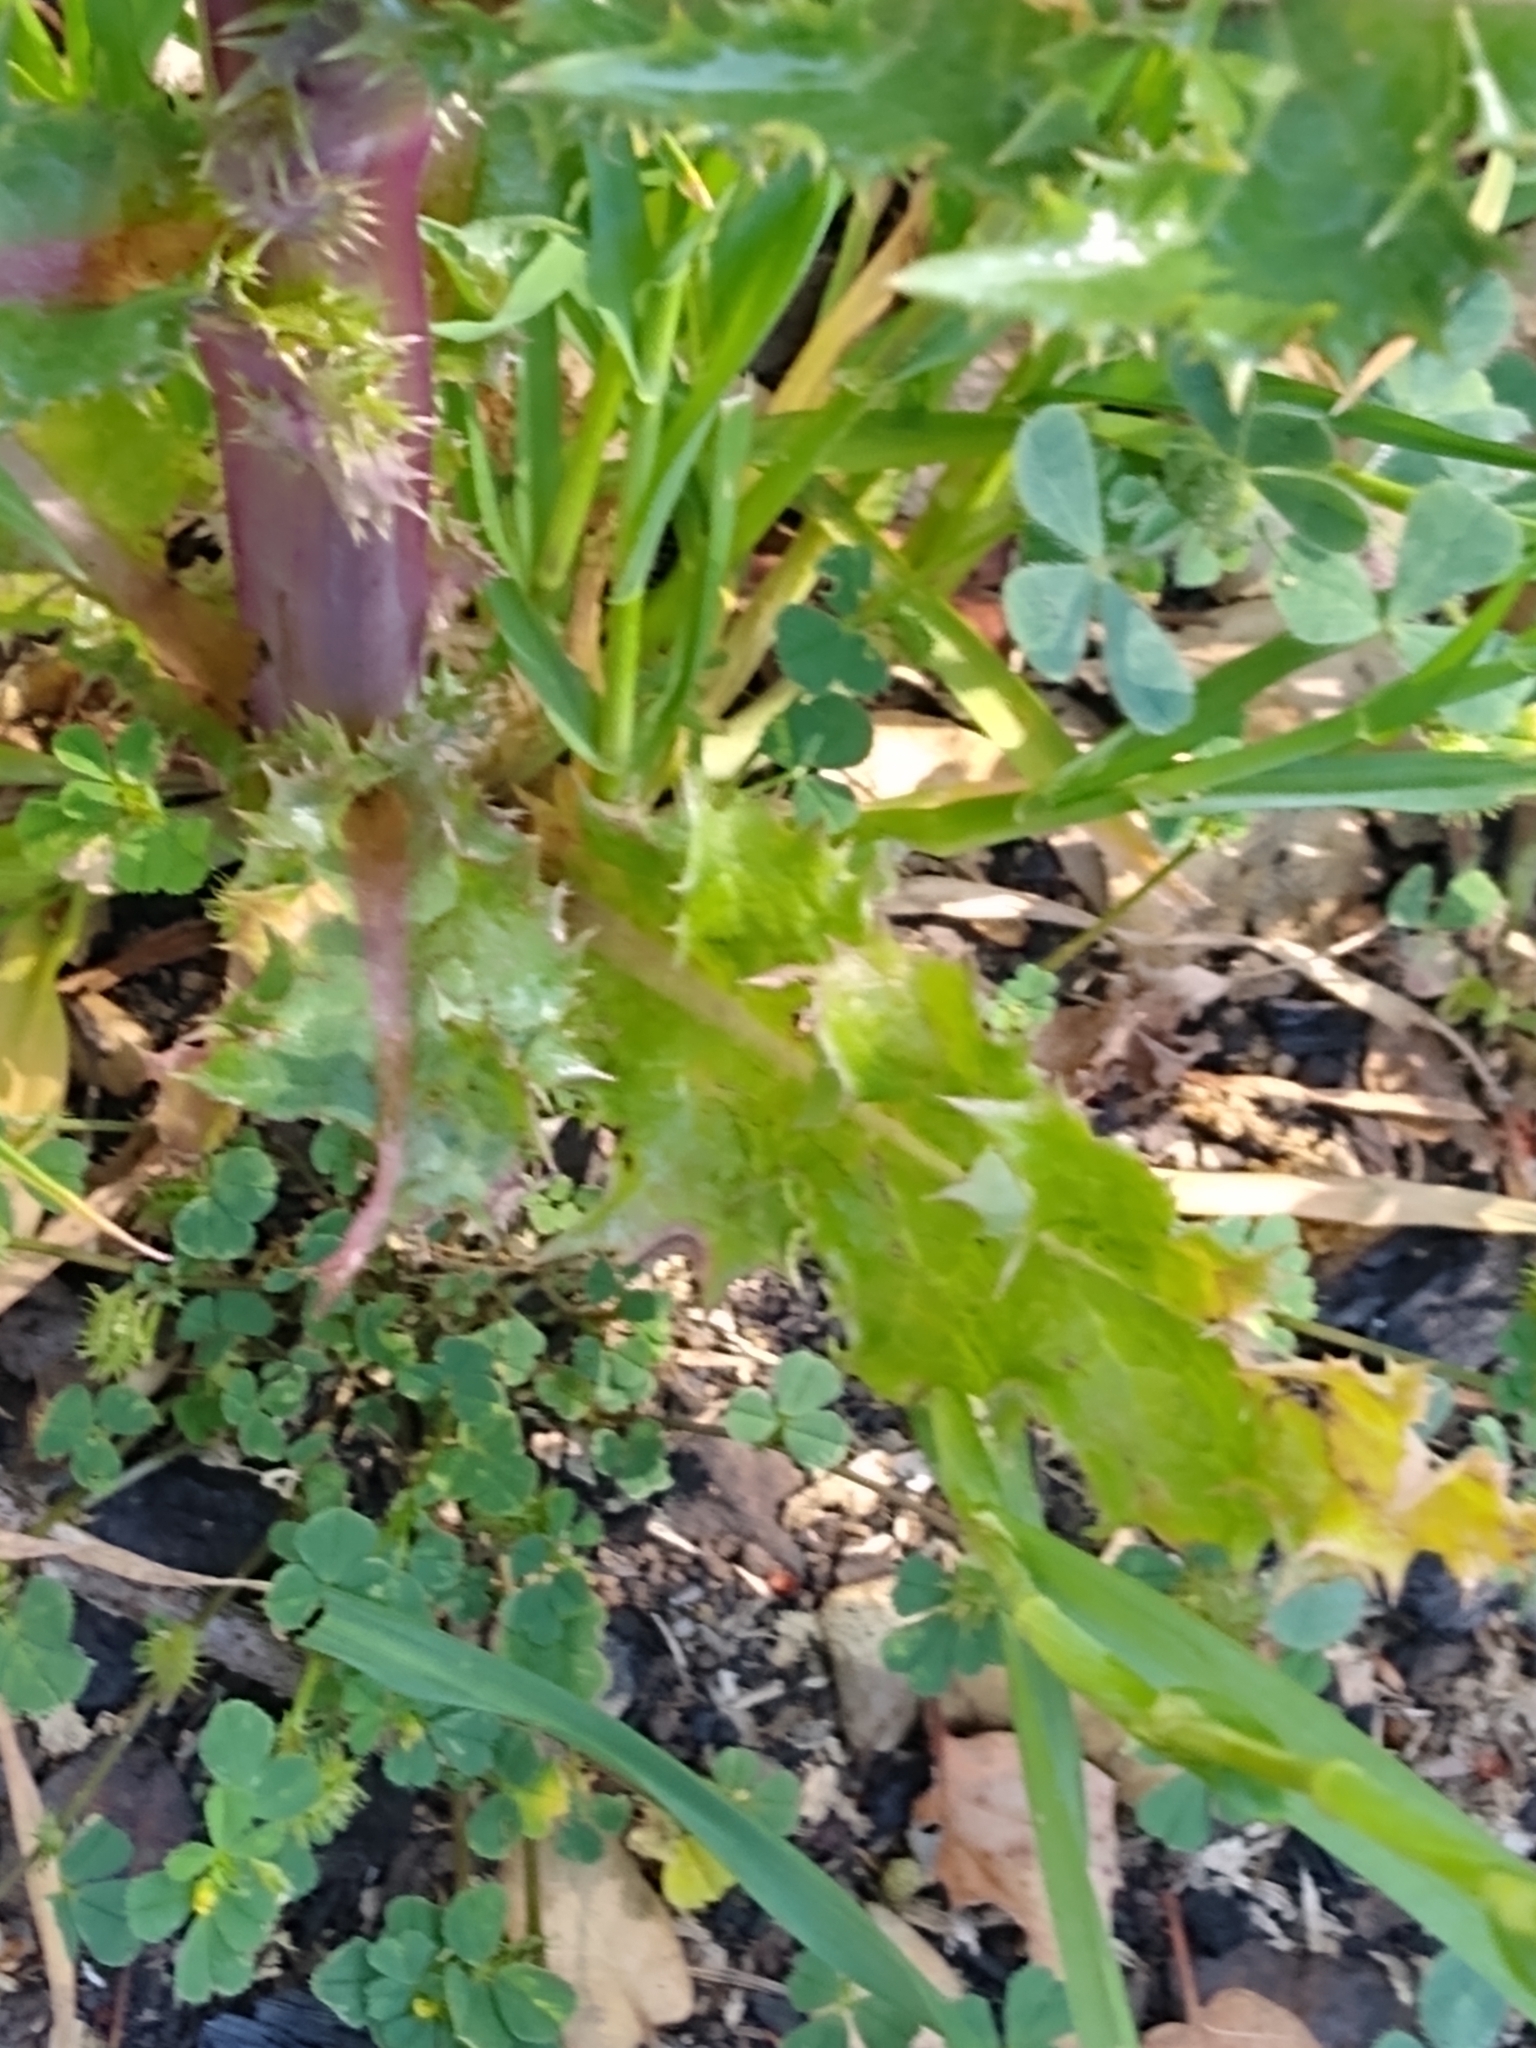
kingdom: Plantae
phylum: Tracheophyta
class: Magnoliopsida
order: Asterales
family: Asteraceae
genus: Sonchus
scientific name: Sonchus asper
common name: Prickly sow-thistle
